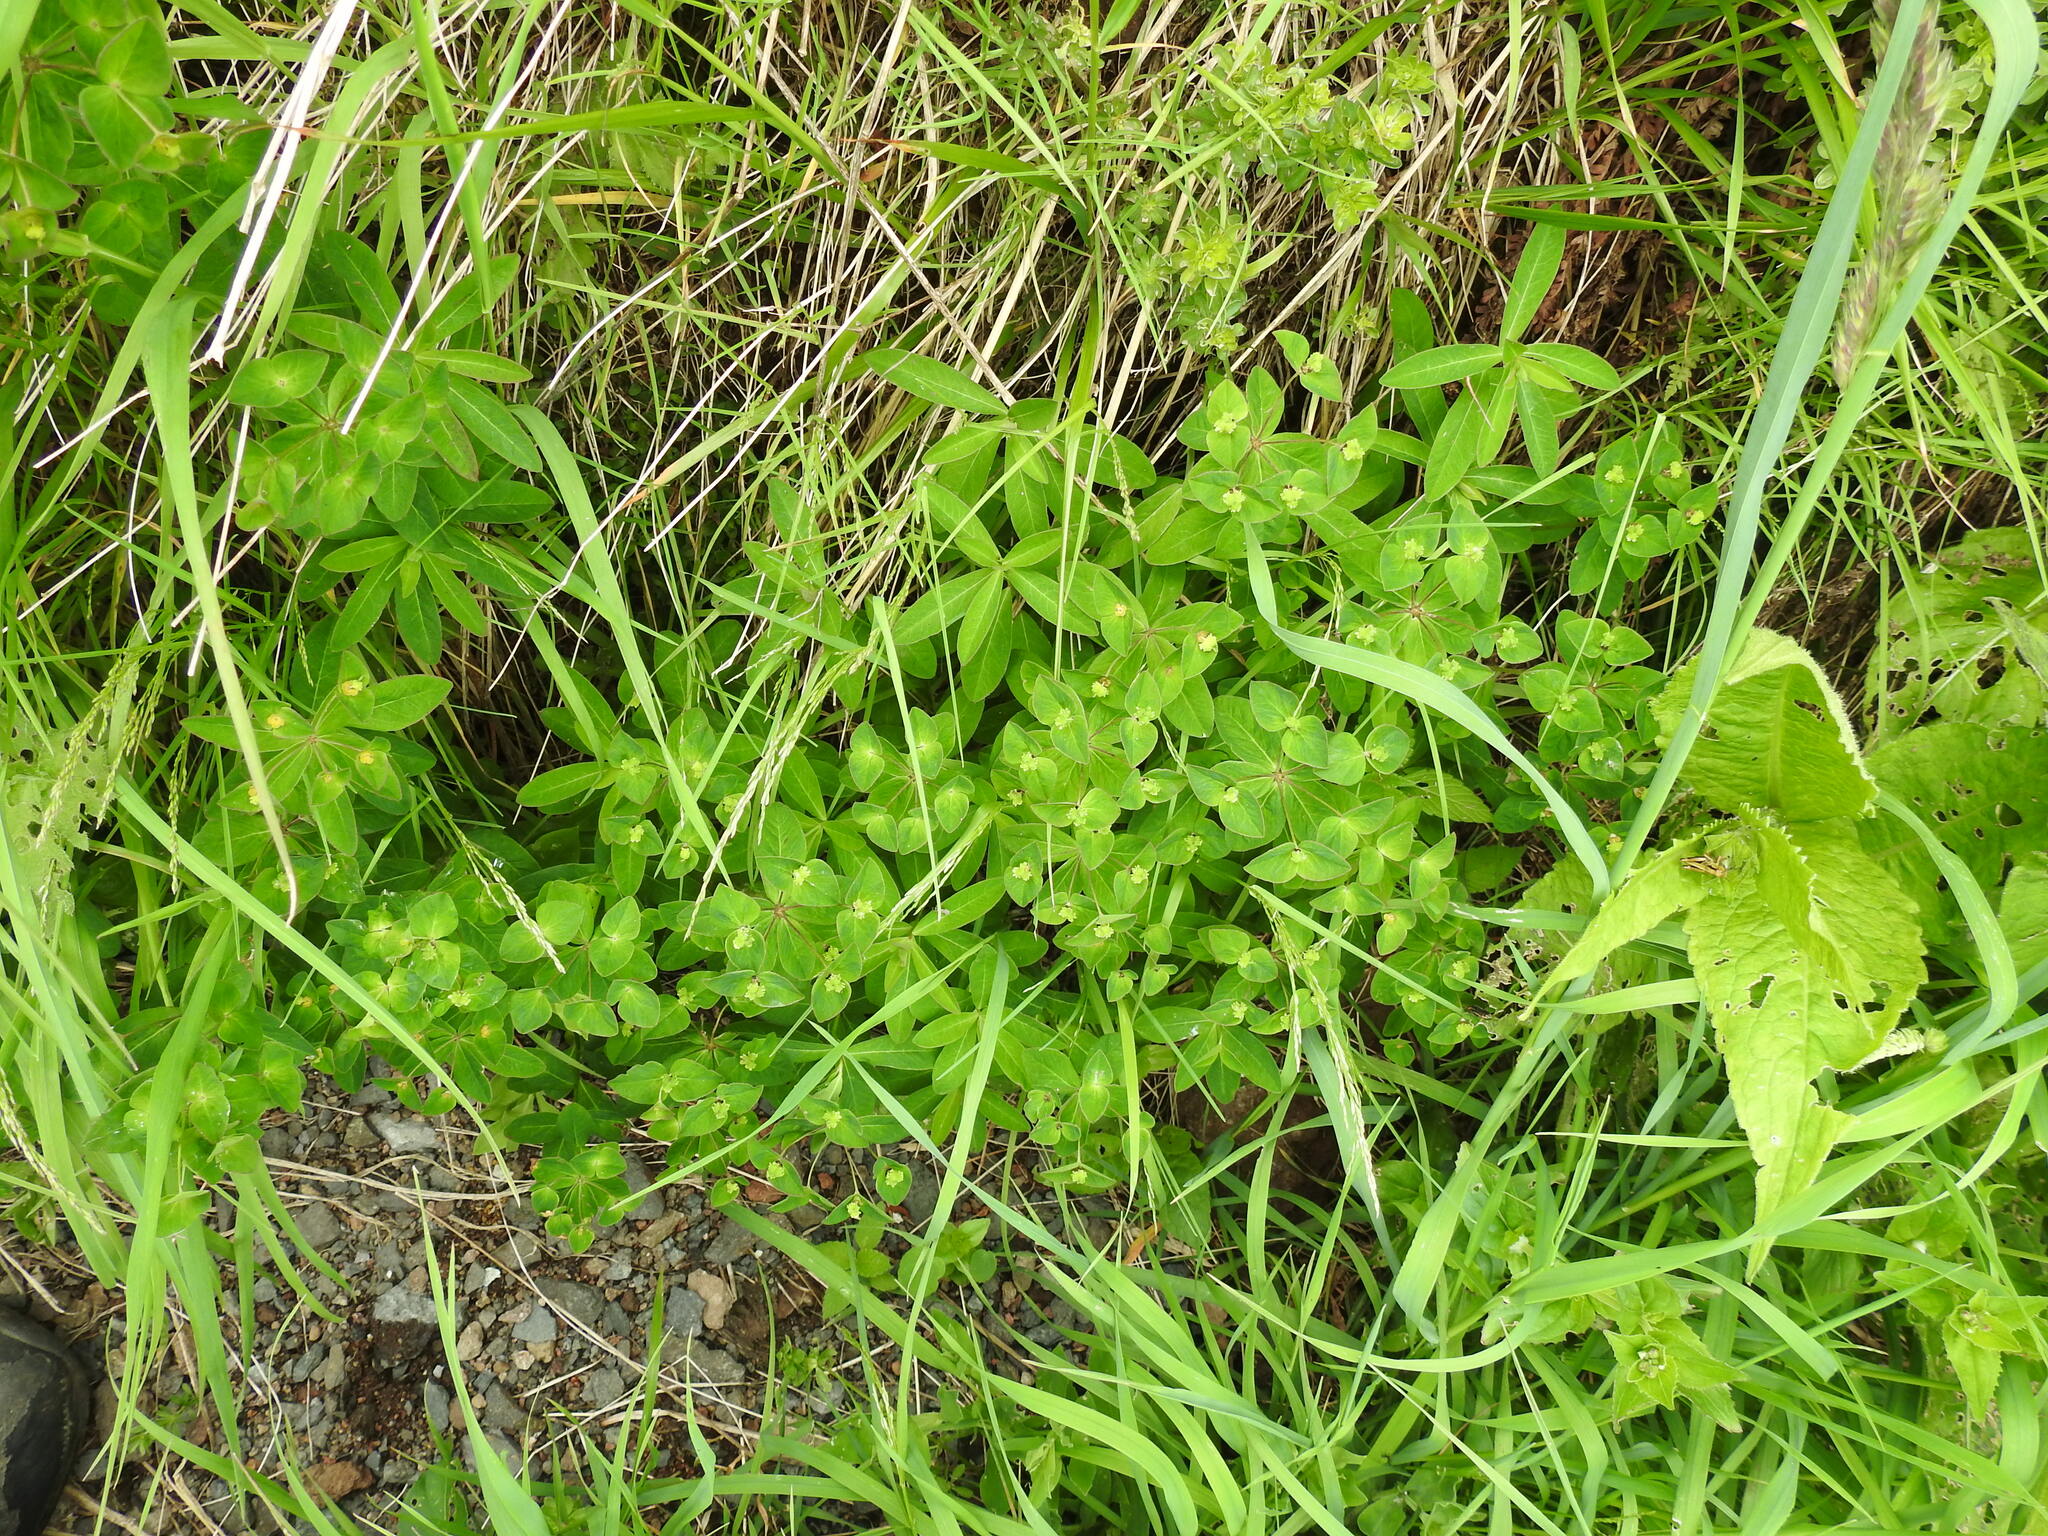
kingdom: Plantae
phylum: Tracheophyta
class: Magnoliopsida
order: Malpighiales
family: Euphorbiaceae
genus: Euphorbia
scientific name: Euphorbia dulcis
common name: Sweet spurge
